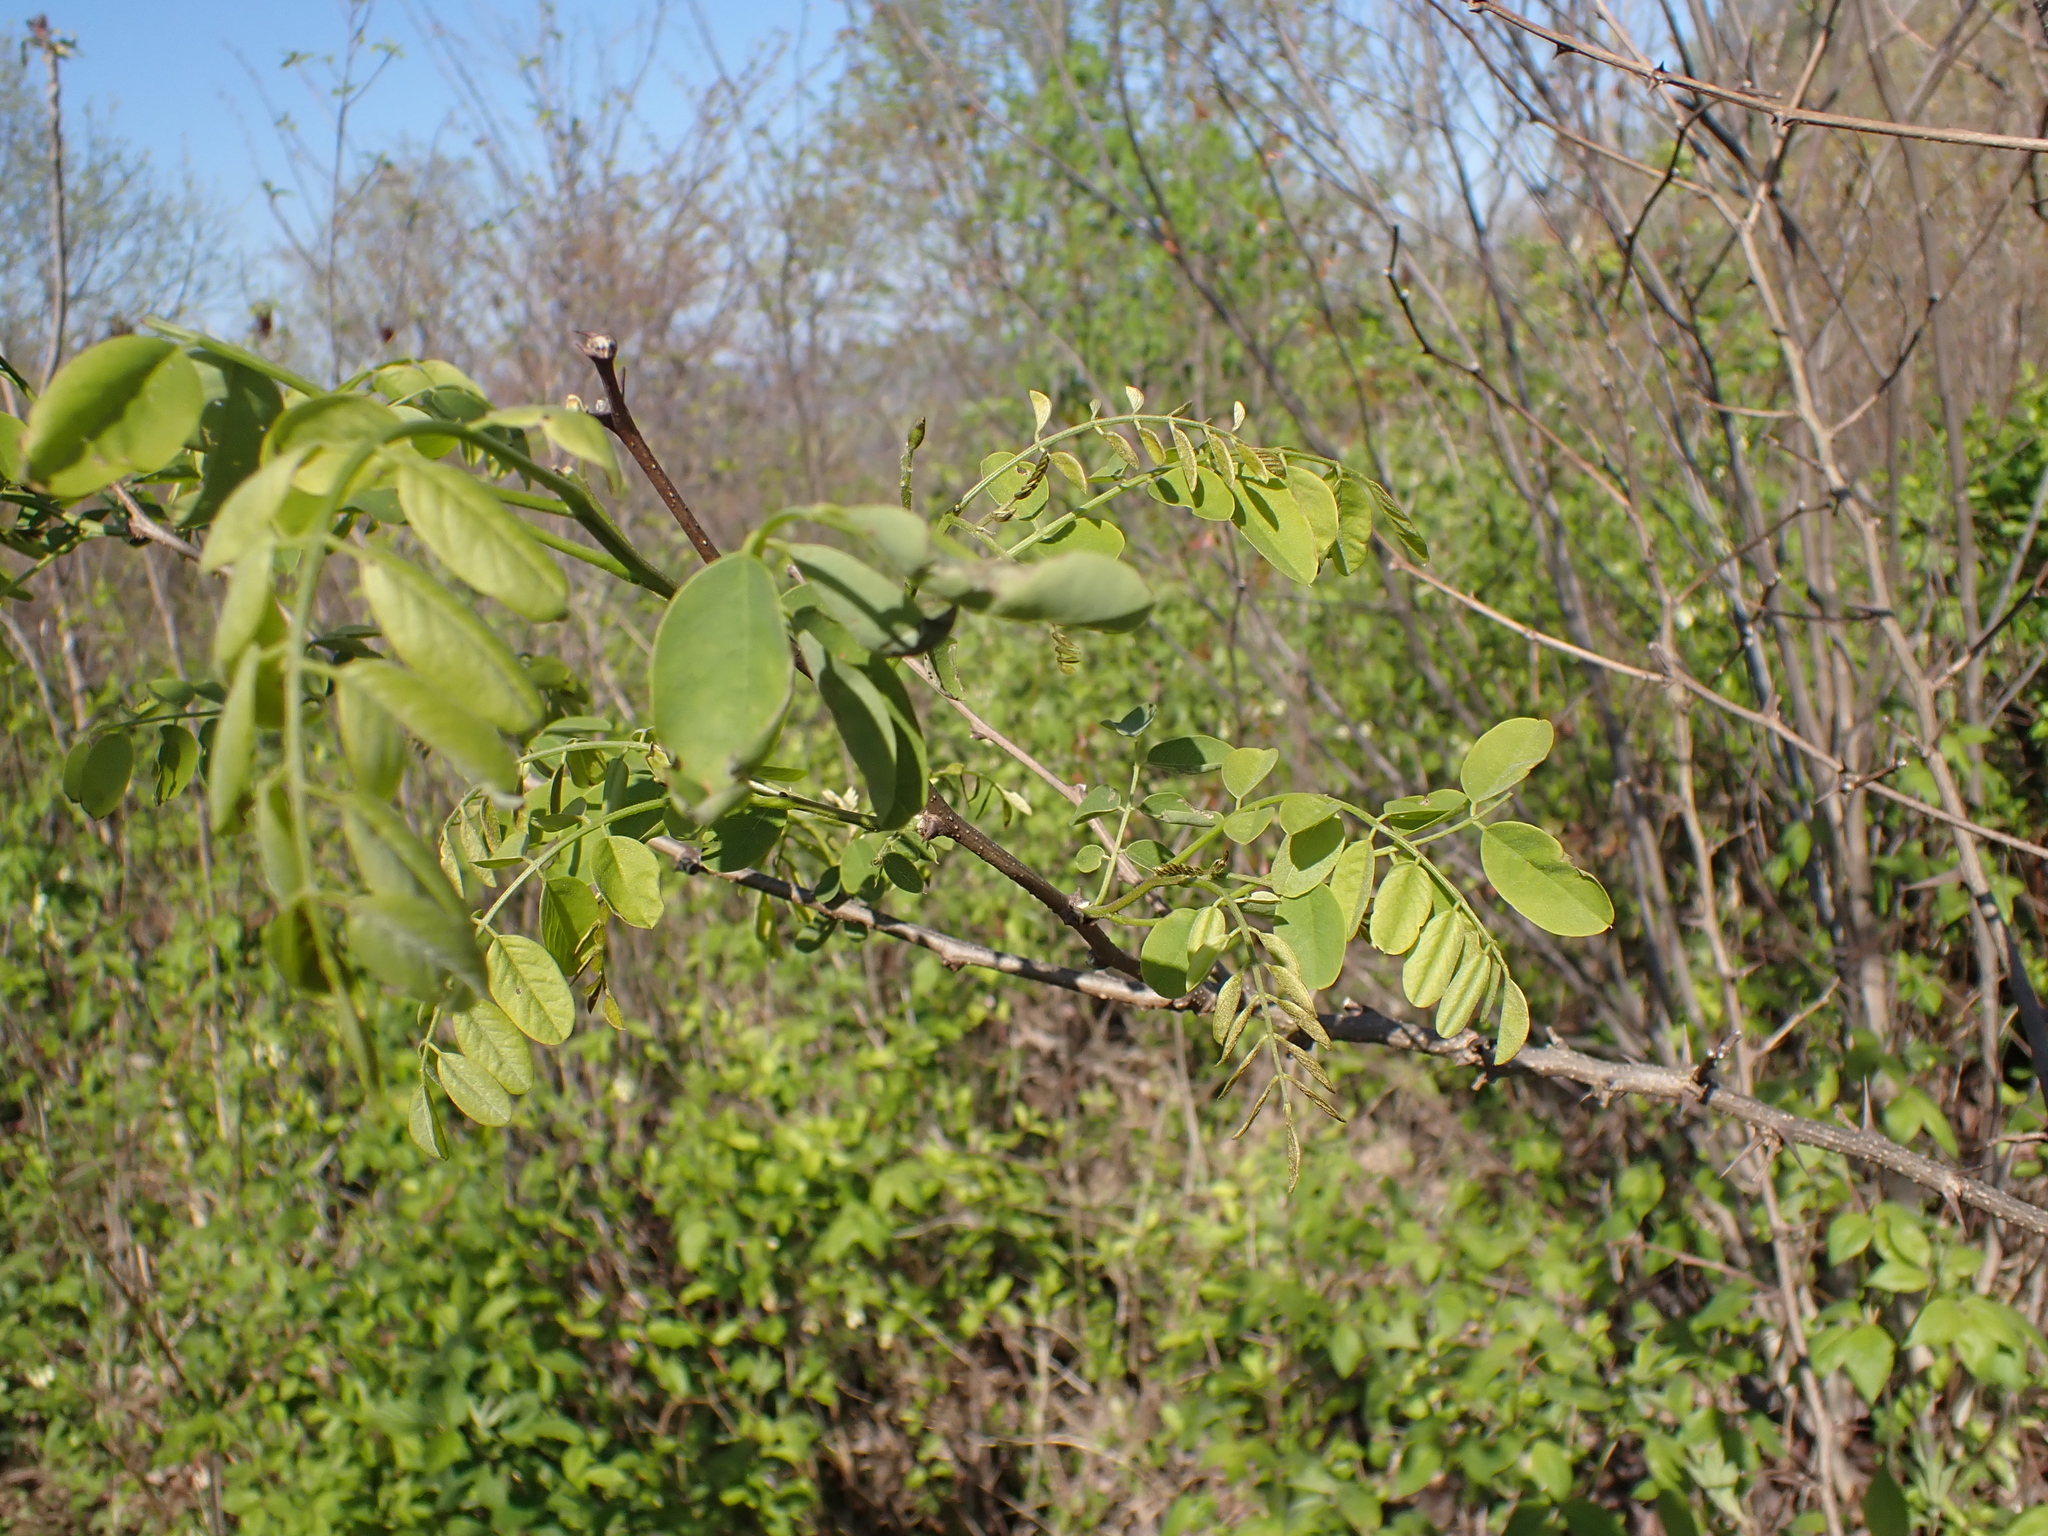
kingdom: Plantae
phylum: Tracheophyta
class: Magnoliopsida
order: Fabales
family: Fabaceae
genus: Robinia
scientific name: Robinia pseudoacacia
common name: Black locust
